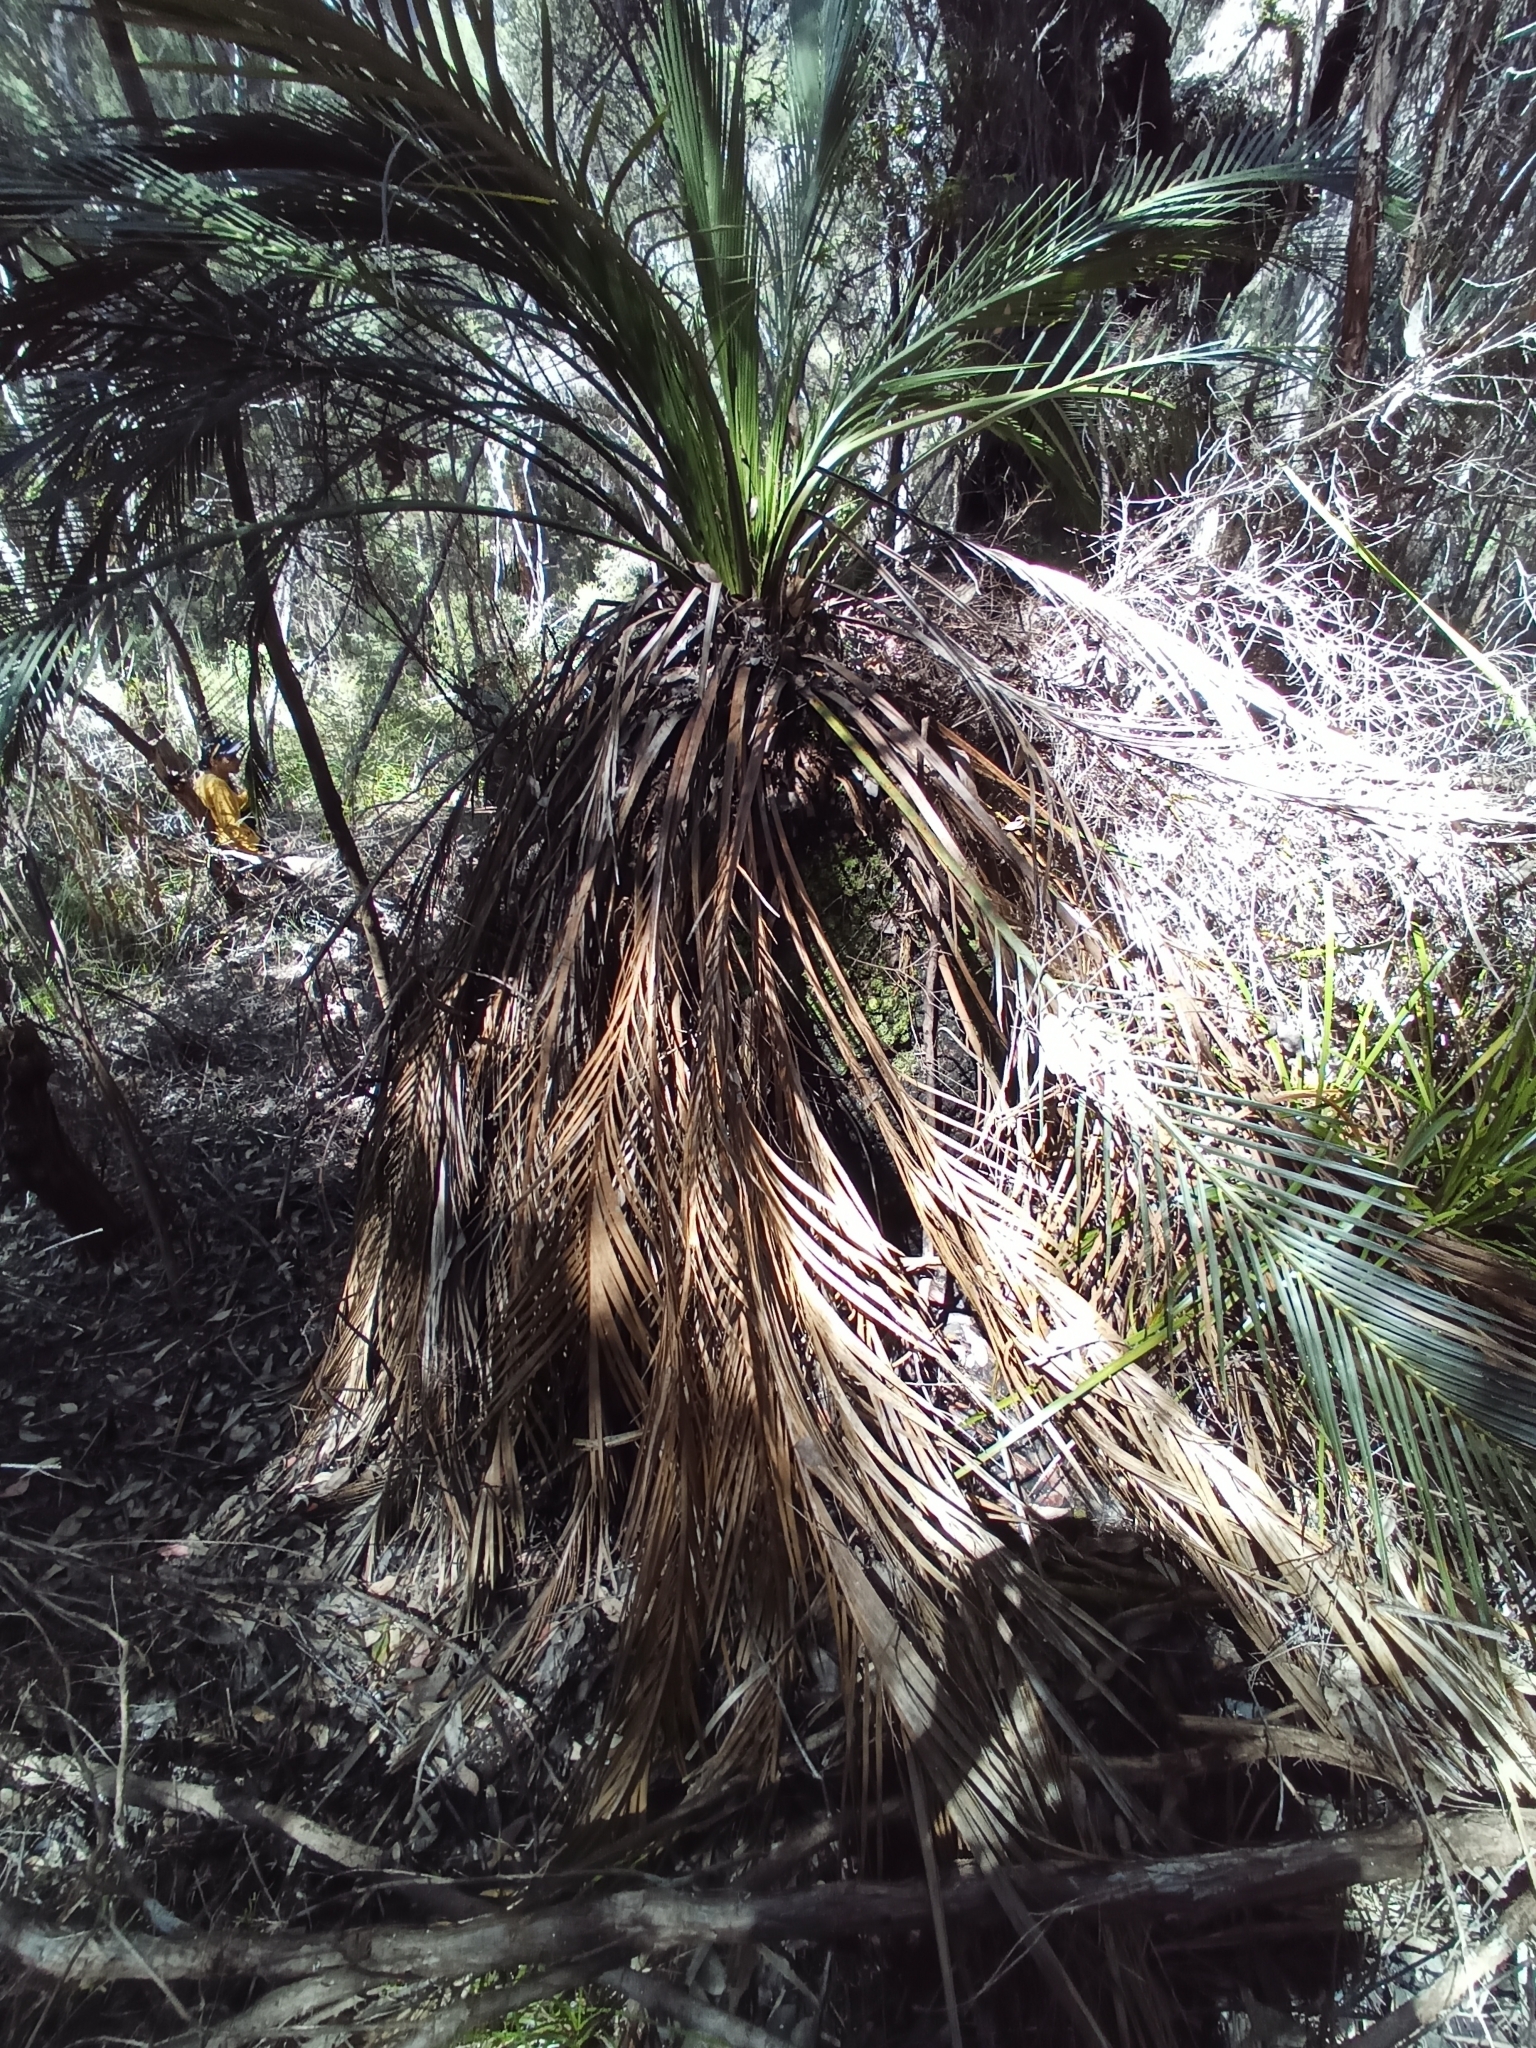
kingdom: Plantae
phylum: Tracheophyta
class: Cycadopsida
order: Cycadales
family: Zamiaceae
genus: Macrozamia
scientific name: Macrozamia riedlei
